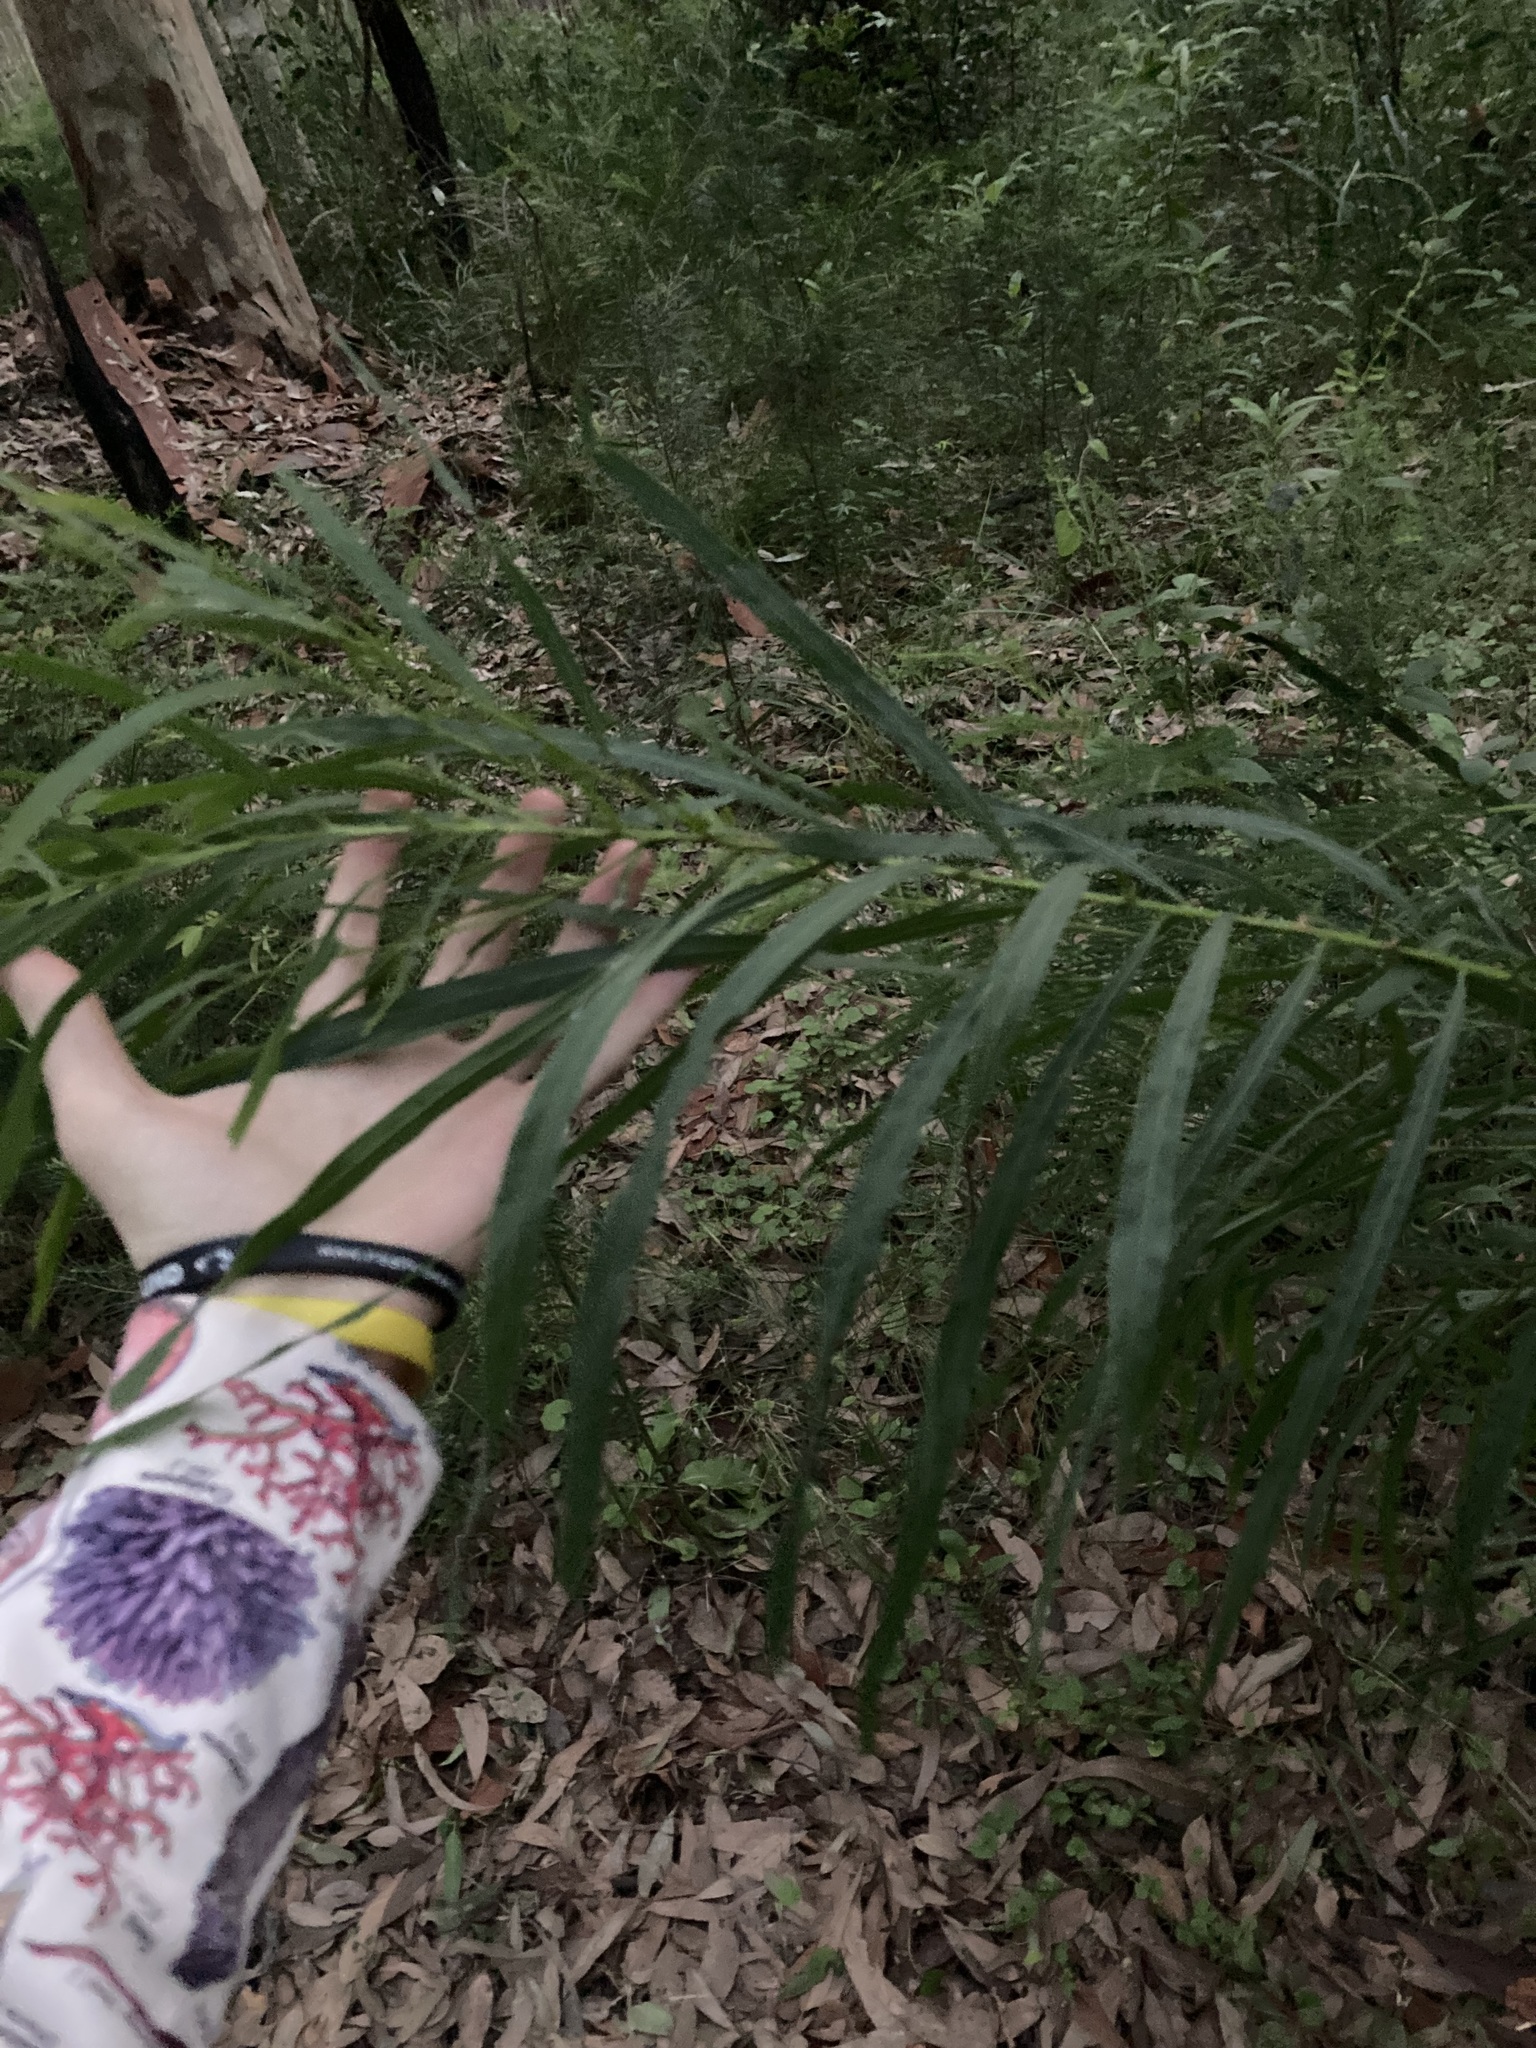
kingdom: Plantae
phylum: Tracheophyta
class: Magnoliopsida
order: Fabales
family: Fabaceae
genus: Acacia
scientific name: Acacia mabellae
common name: Black wattle
